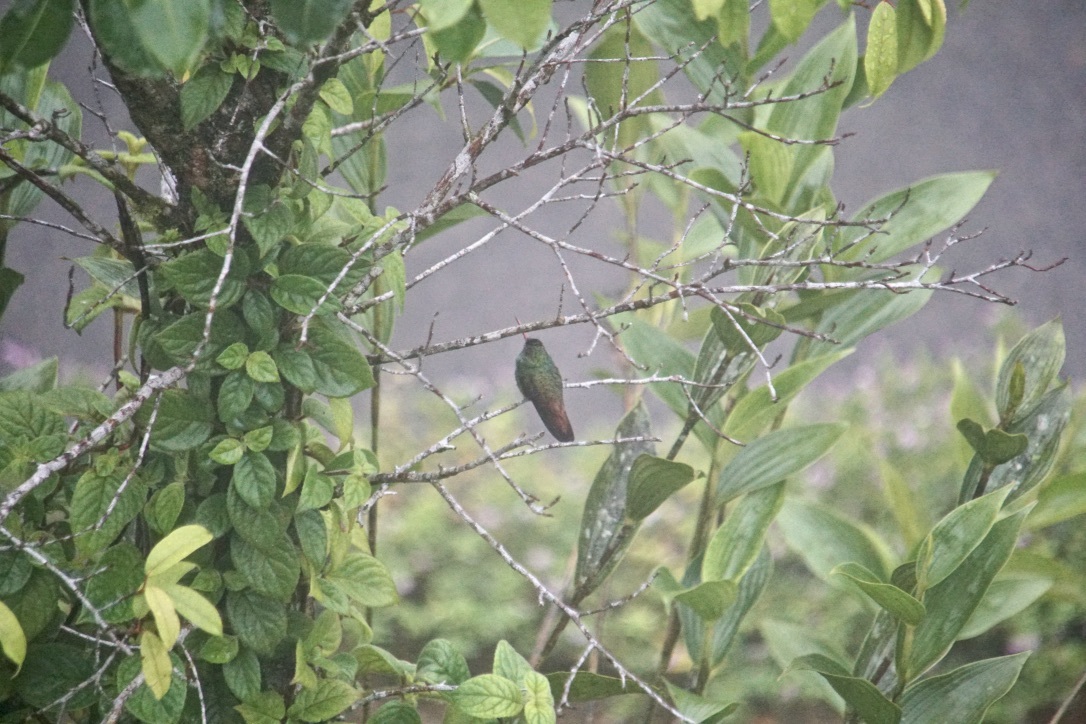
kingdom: Animalia
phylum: Chordata
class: Aves
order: Apodiformes
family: Trochilidae
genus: Amazilia
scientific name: Amazilia tzacatl
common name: Rufous-tailed hummingbird
